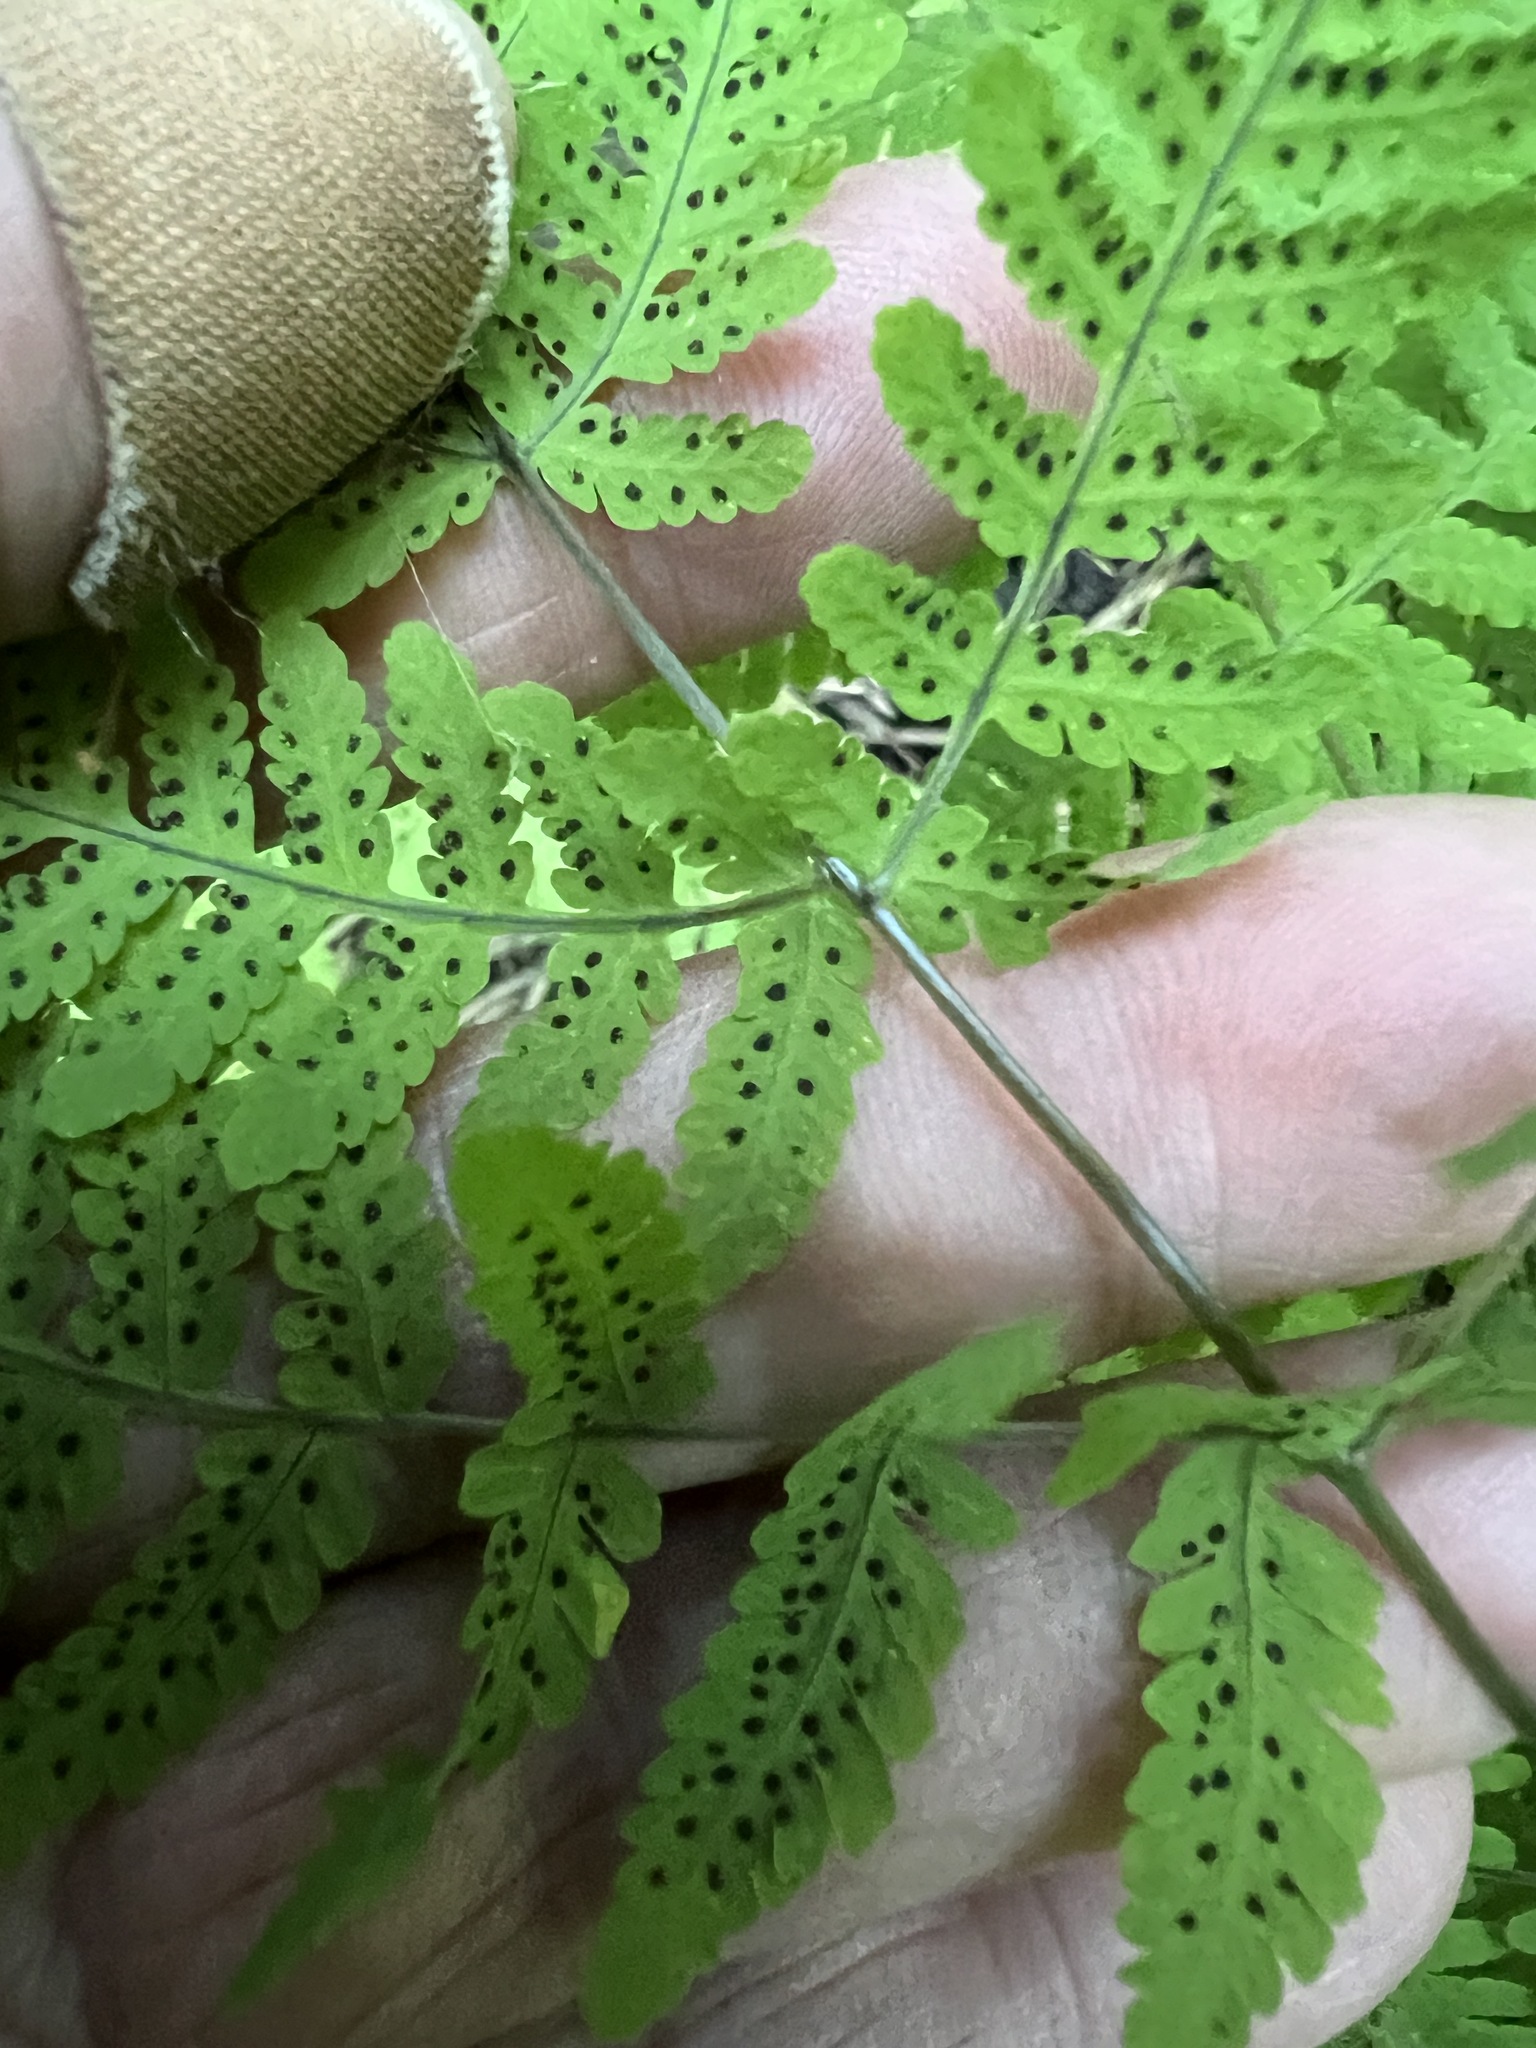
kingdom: Plantae
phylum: Tracheophyta
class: Polypodiopsida
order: Polypodiales
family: Cystopteridaceae
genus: Gymnocarpium
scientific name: Gymnocarpium disjunctum
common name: Western oak fern
